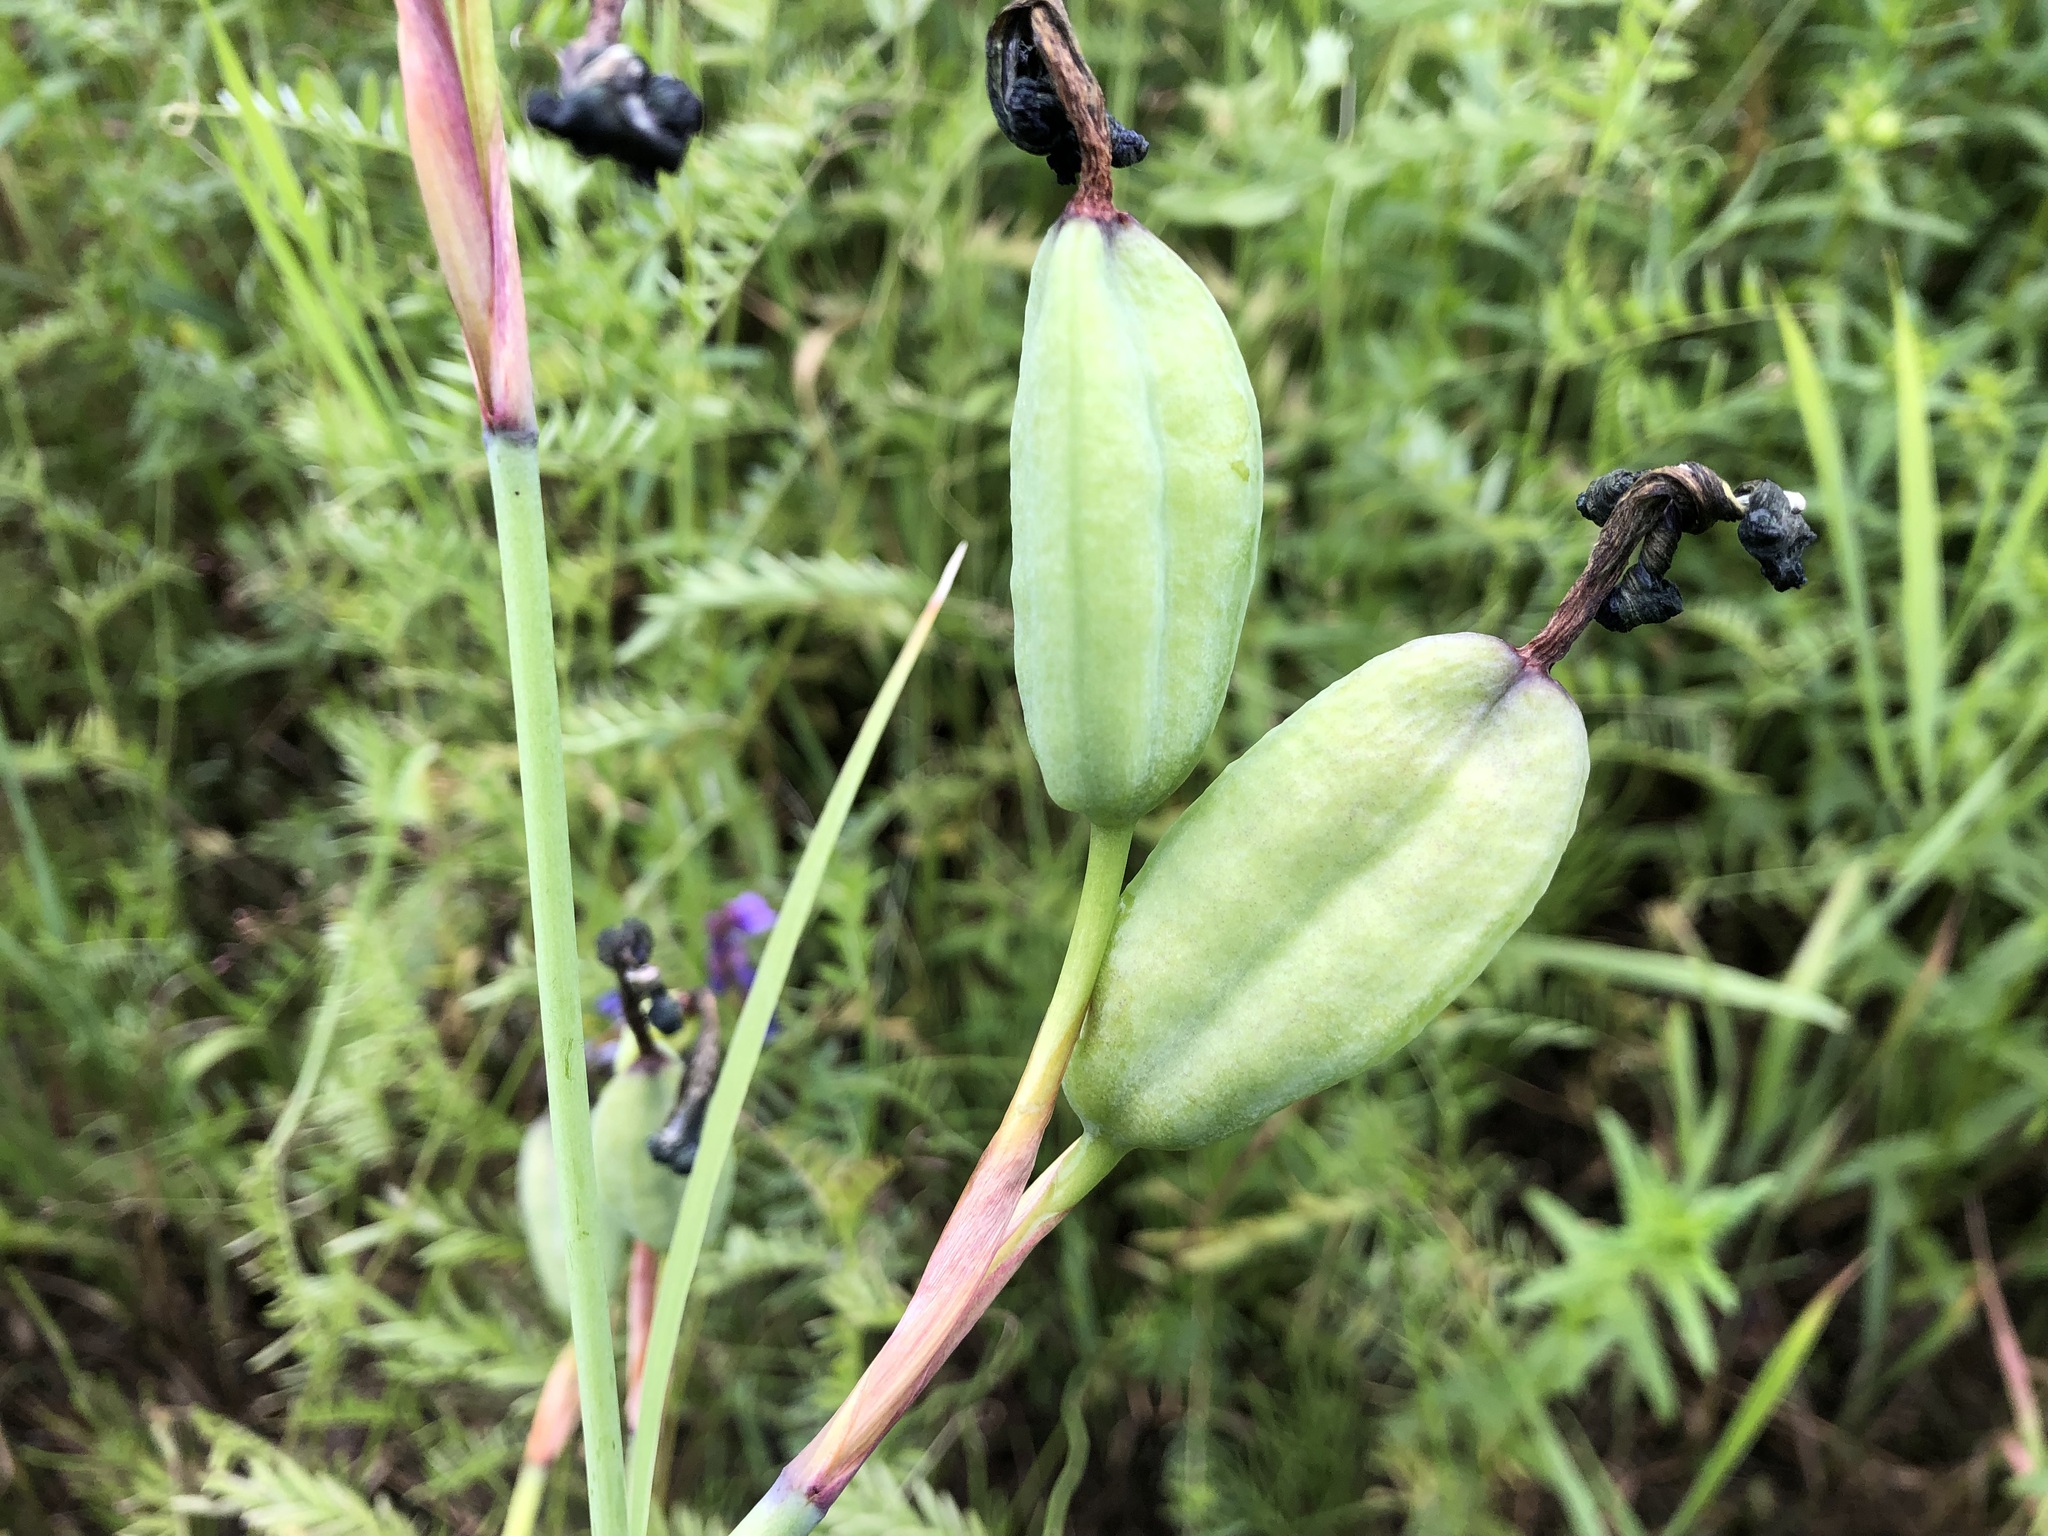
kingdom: Plantae
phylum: Tracheophyta
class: Liliopsida
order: Asparagales
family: Iridaceae
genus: Iris
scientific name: Iris setosa
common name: Arctic blue flag
